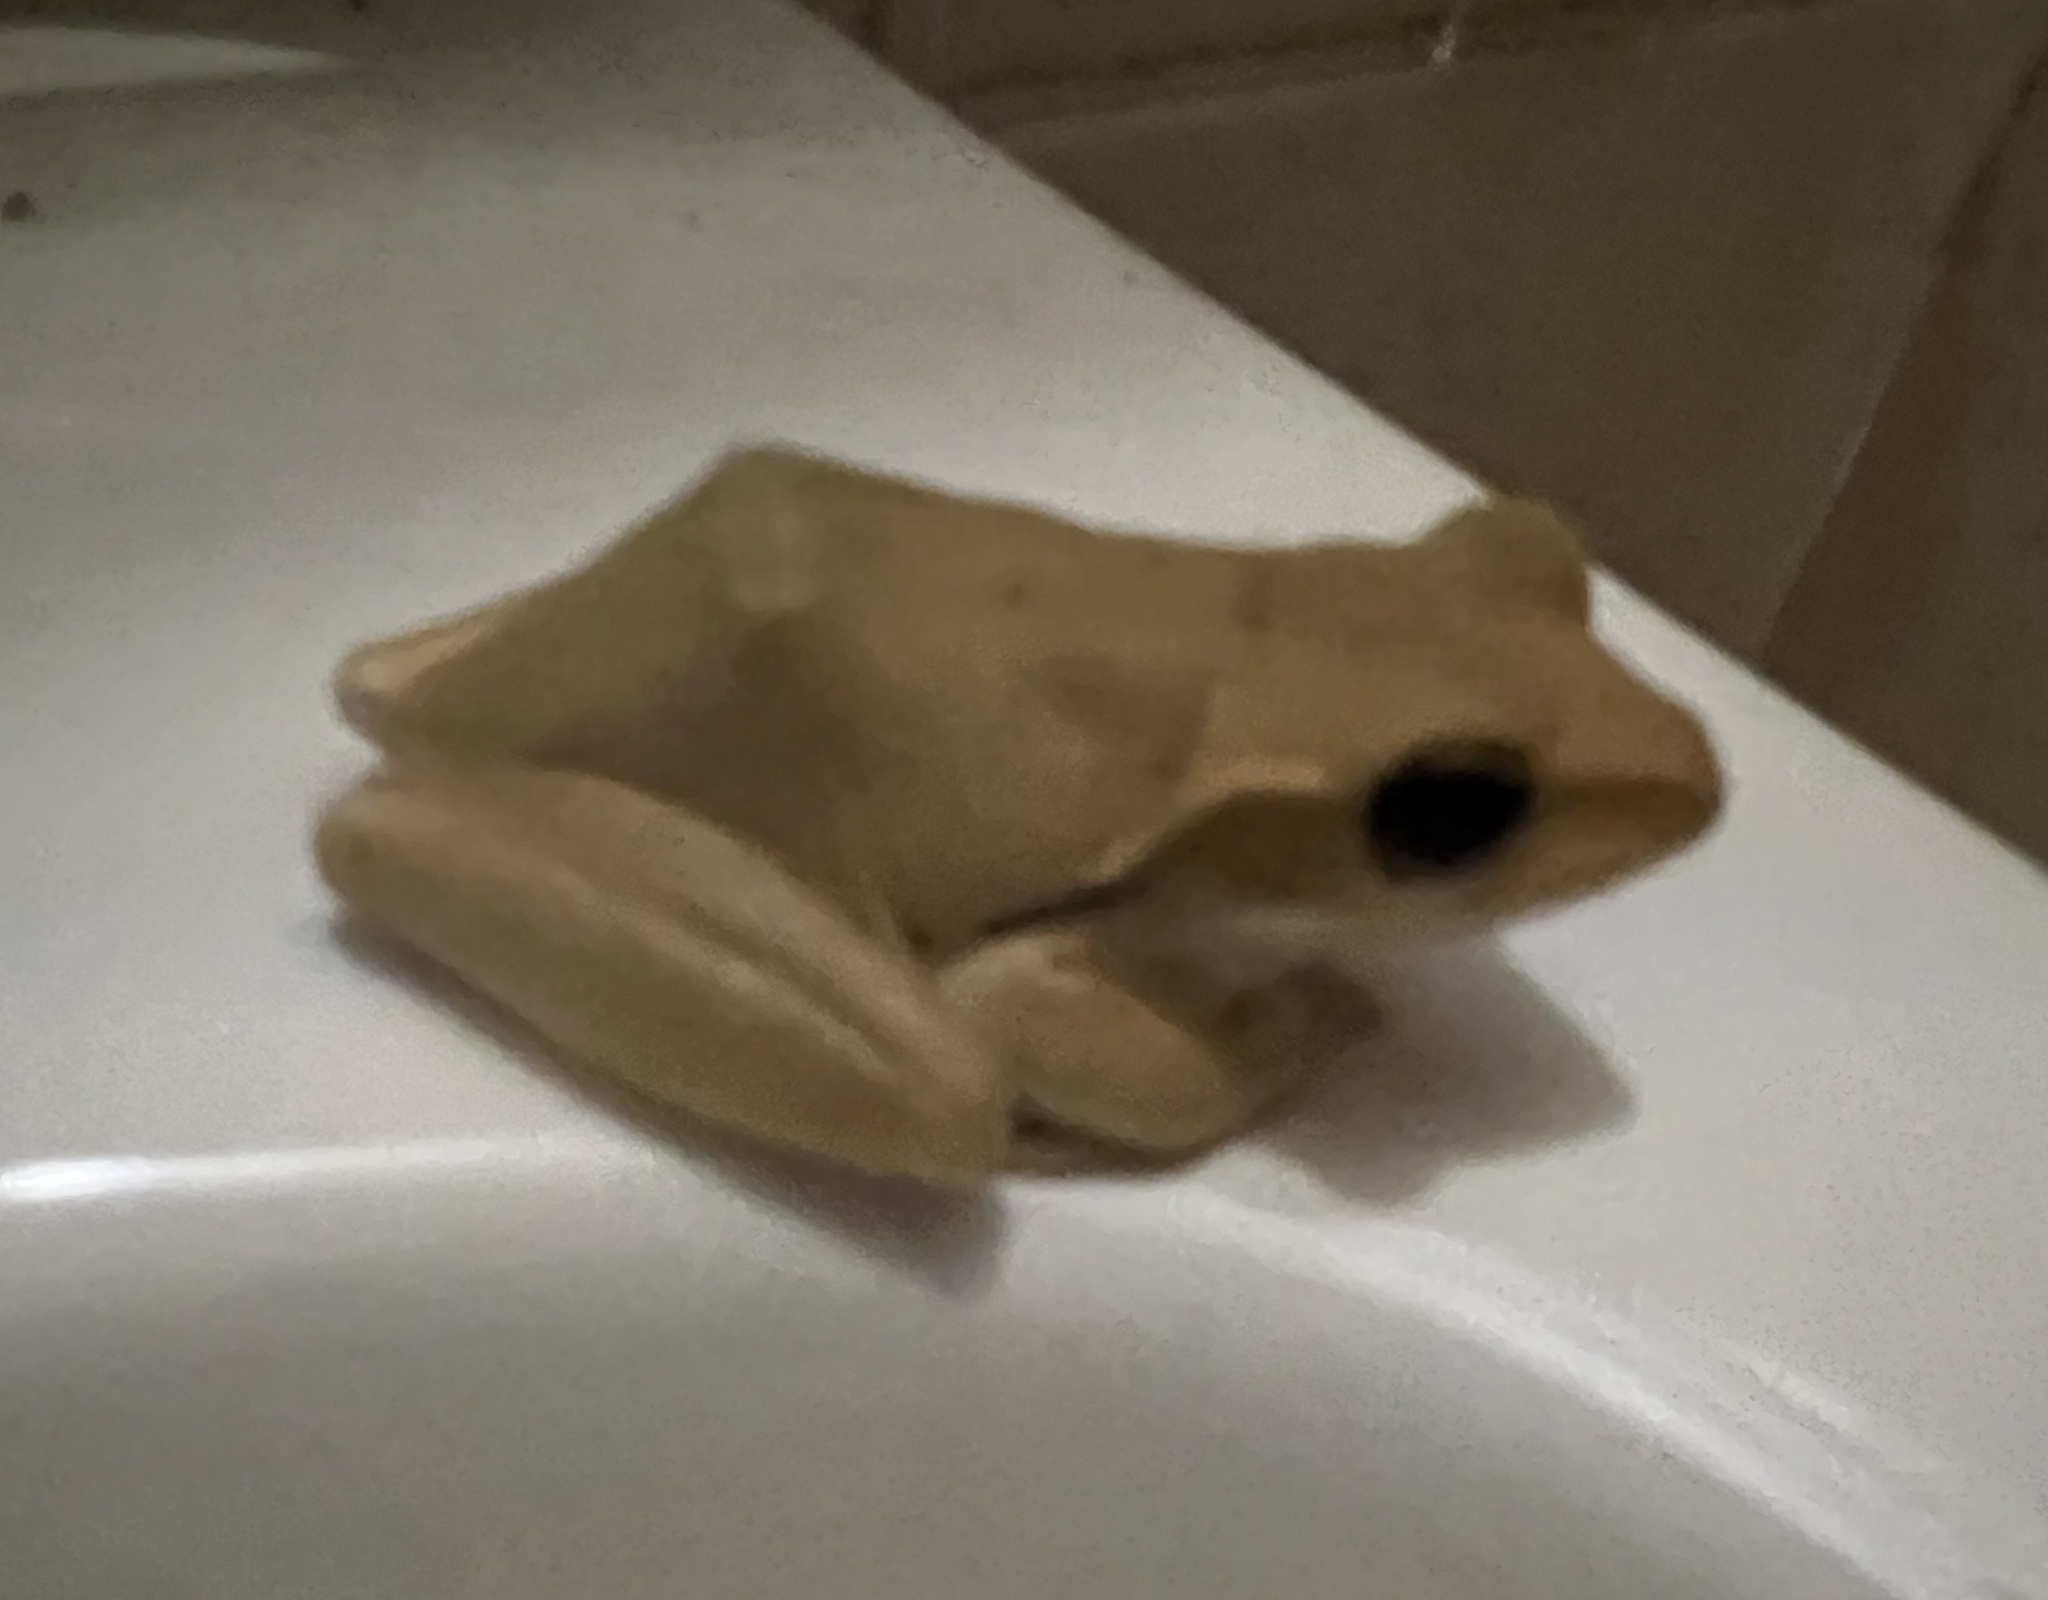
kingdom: Animalia
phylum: Chordata
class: Amphibia
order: Anura
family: Rhacophoridae
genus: Polypedates
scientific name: Polypedates maculatus
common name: Himalayan tree frog
